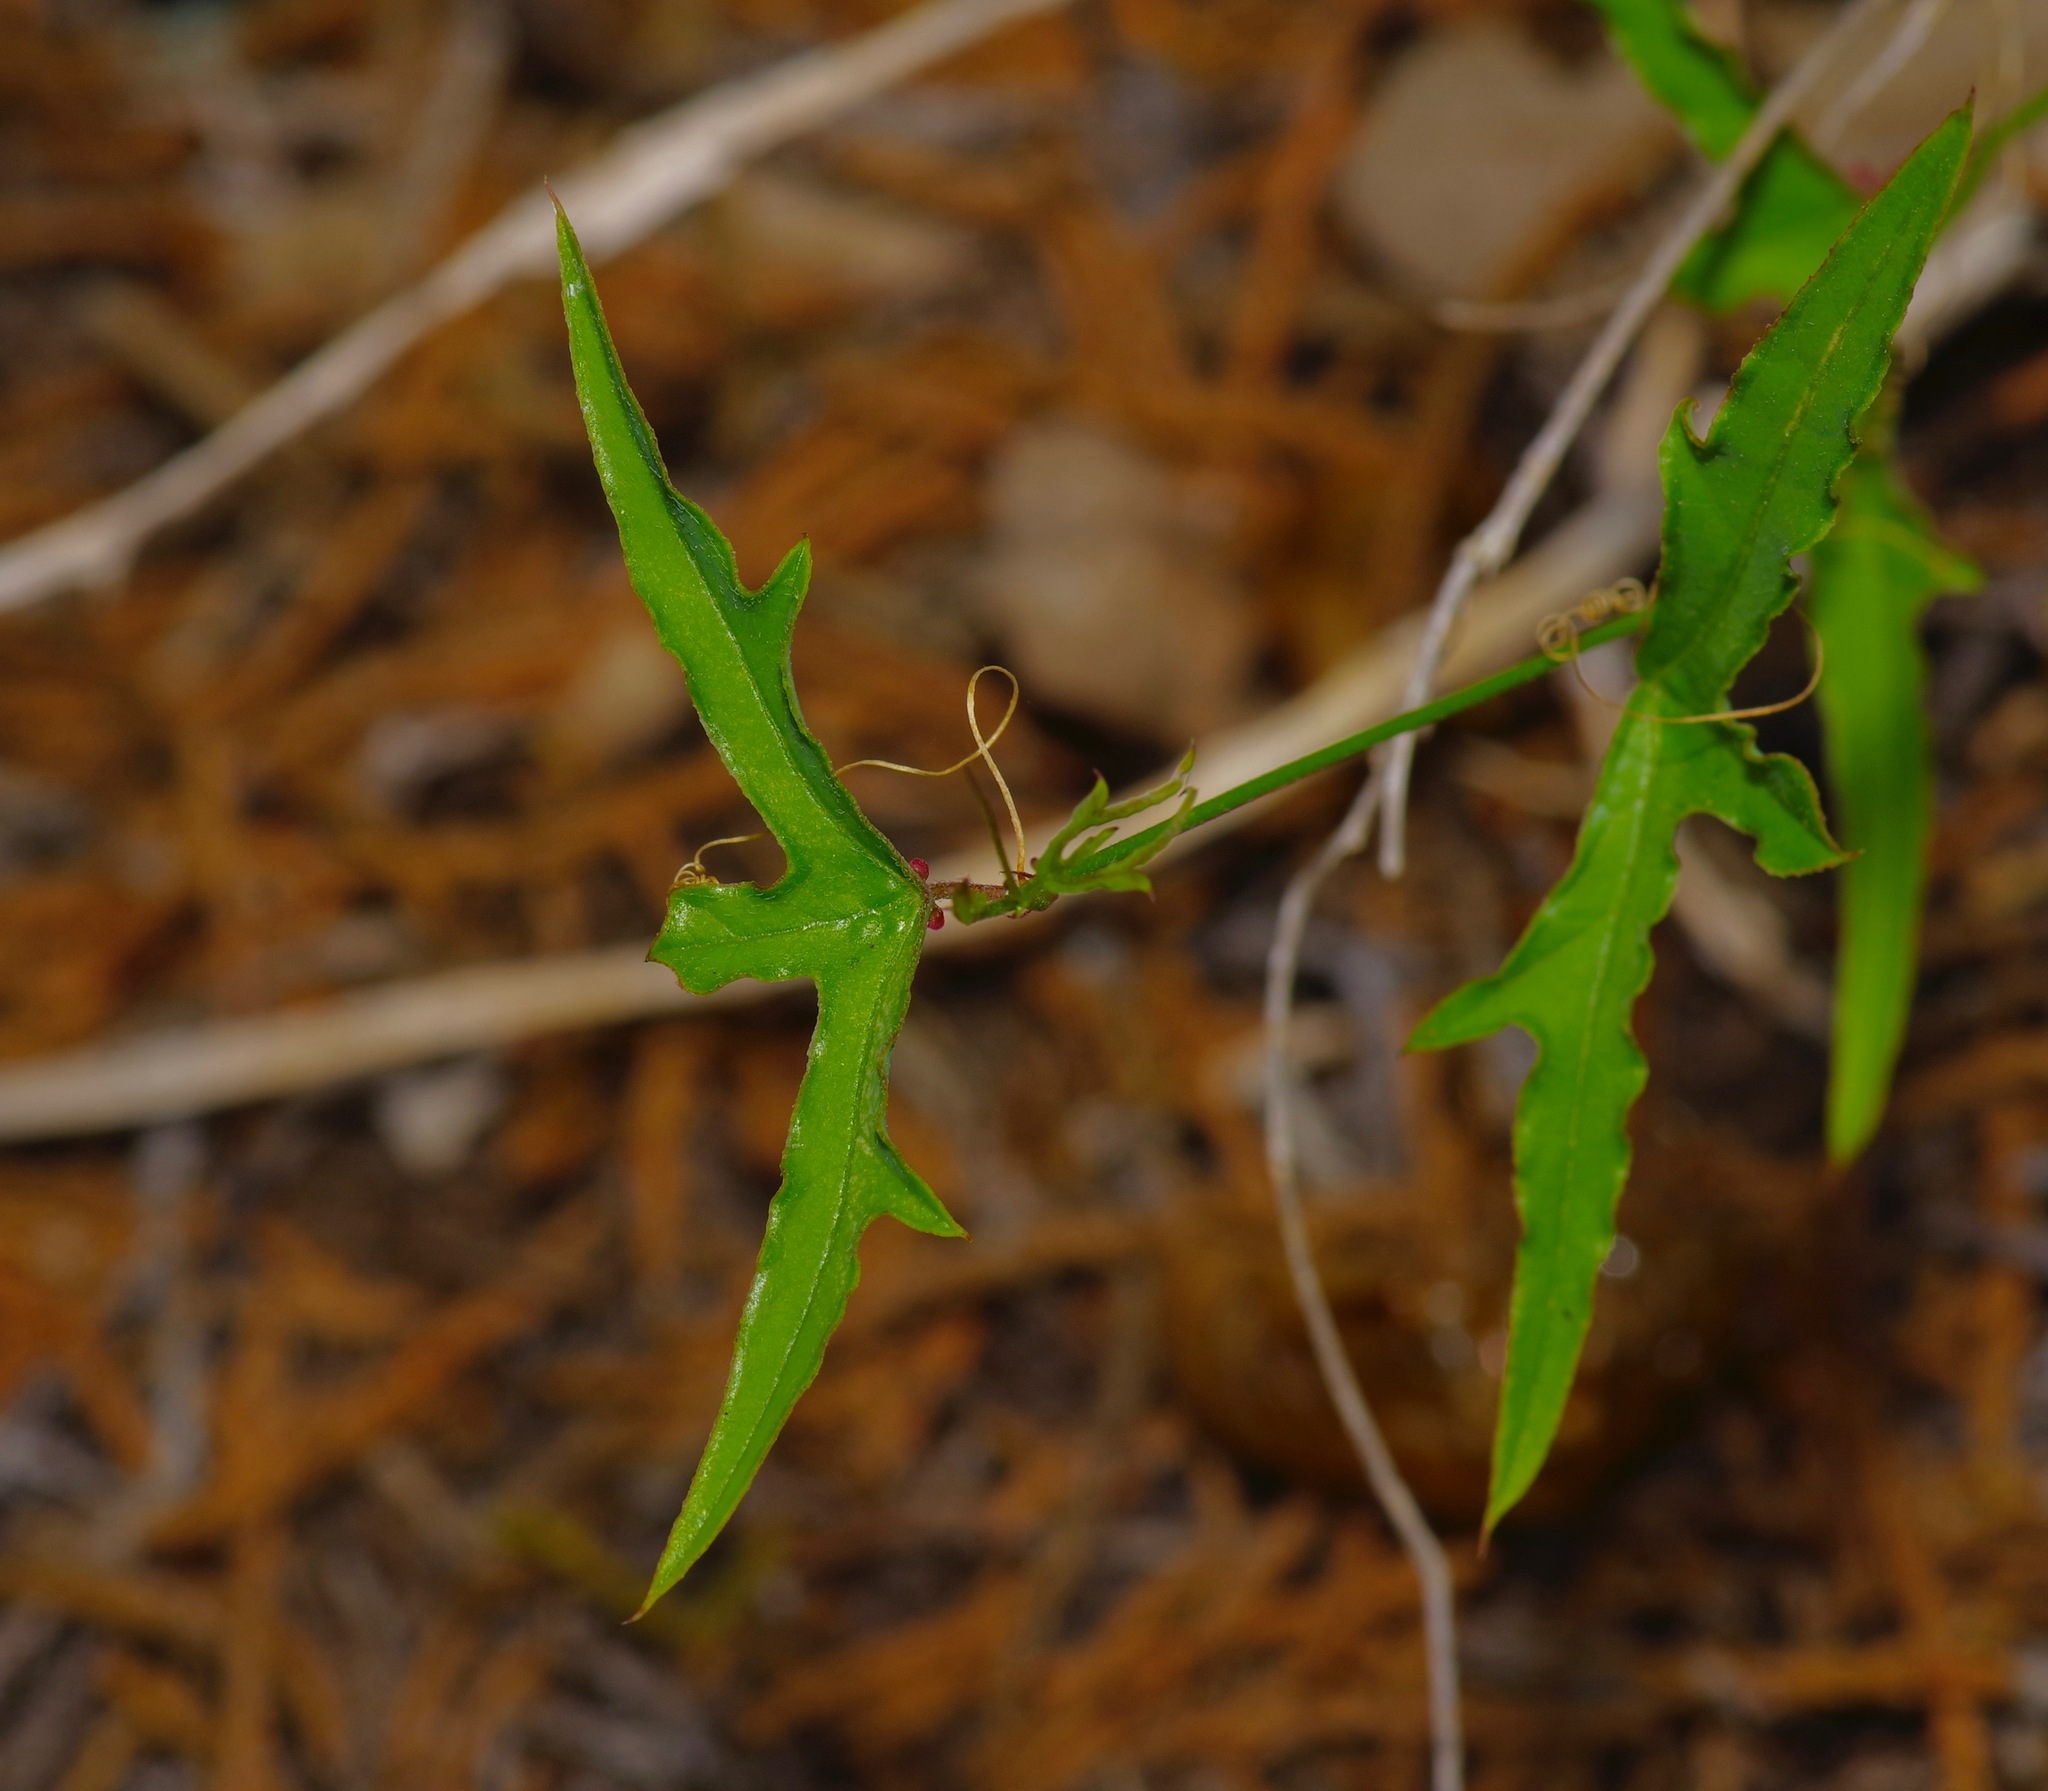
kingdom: Plantae
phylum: Tracheophyta
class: Magnoliopsida
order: Malpighiales
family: Passifloraceae
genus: Passiflora
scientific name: Passiflora tenuiloba
